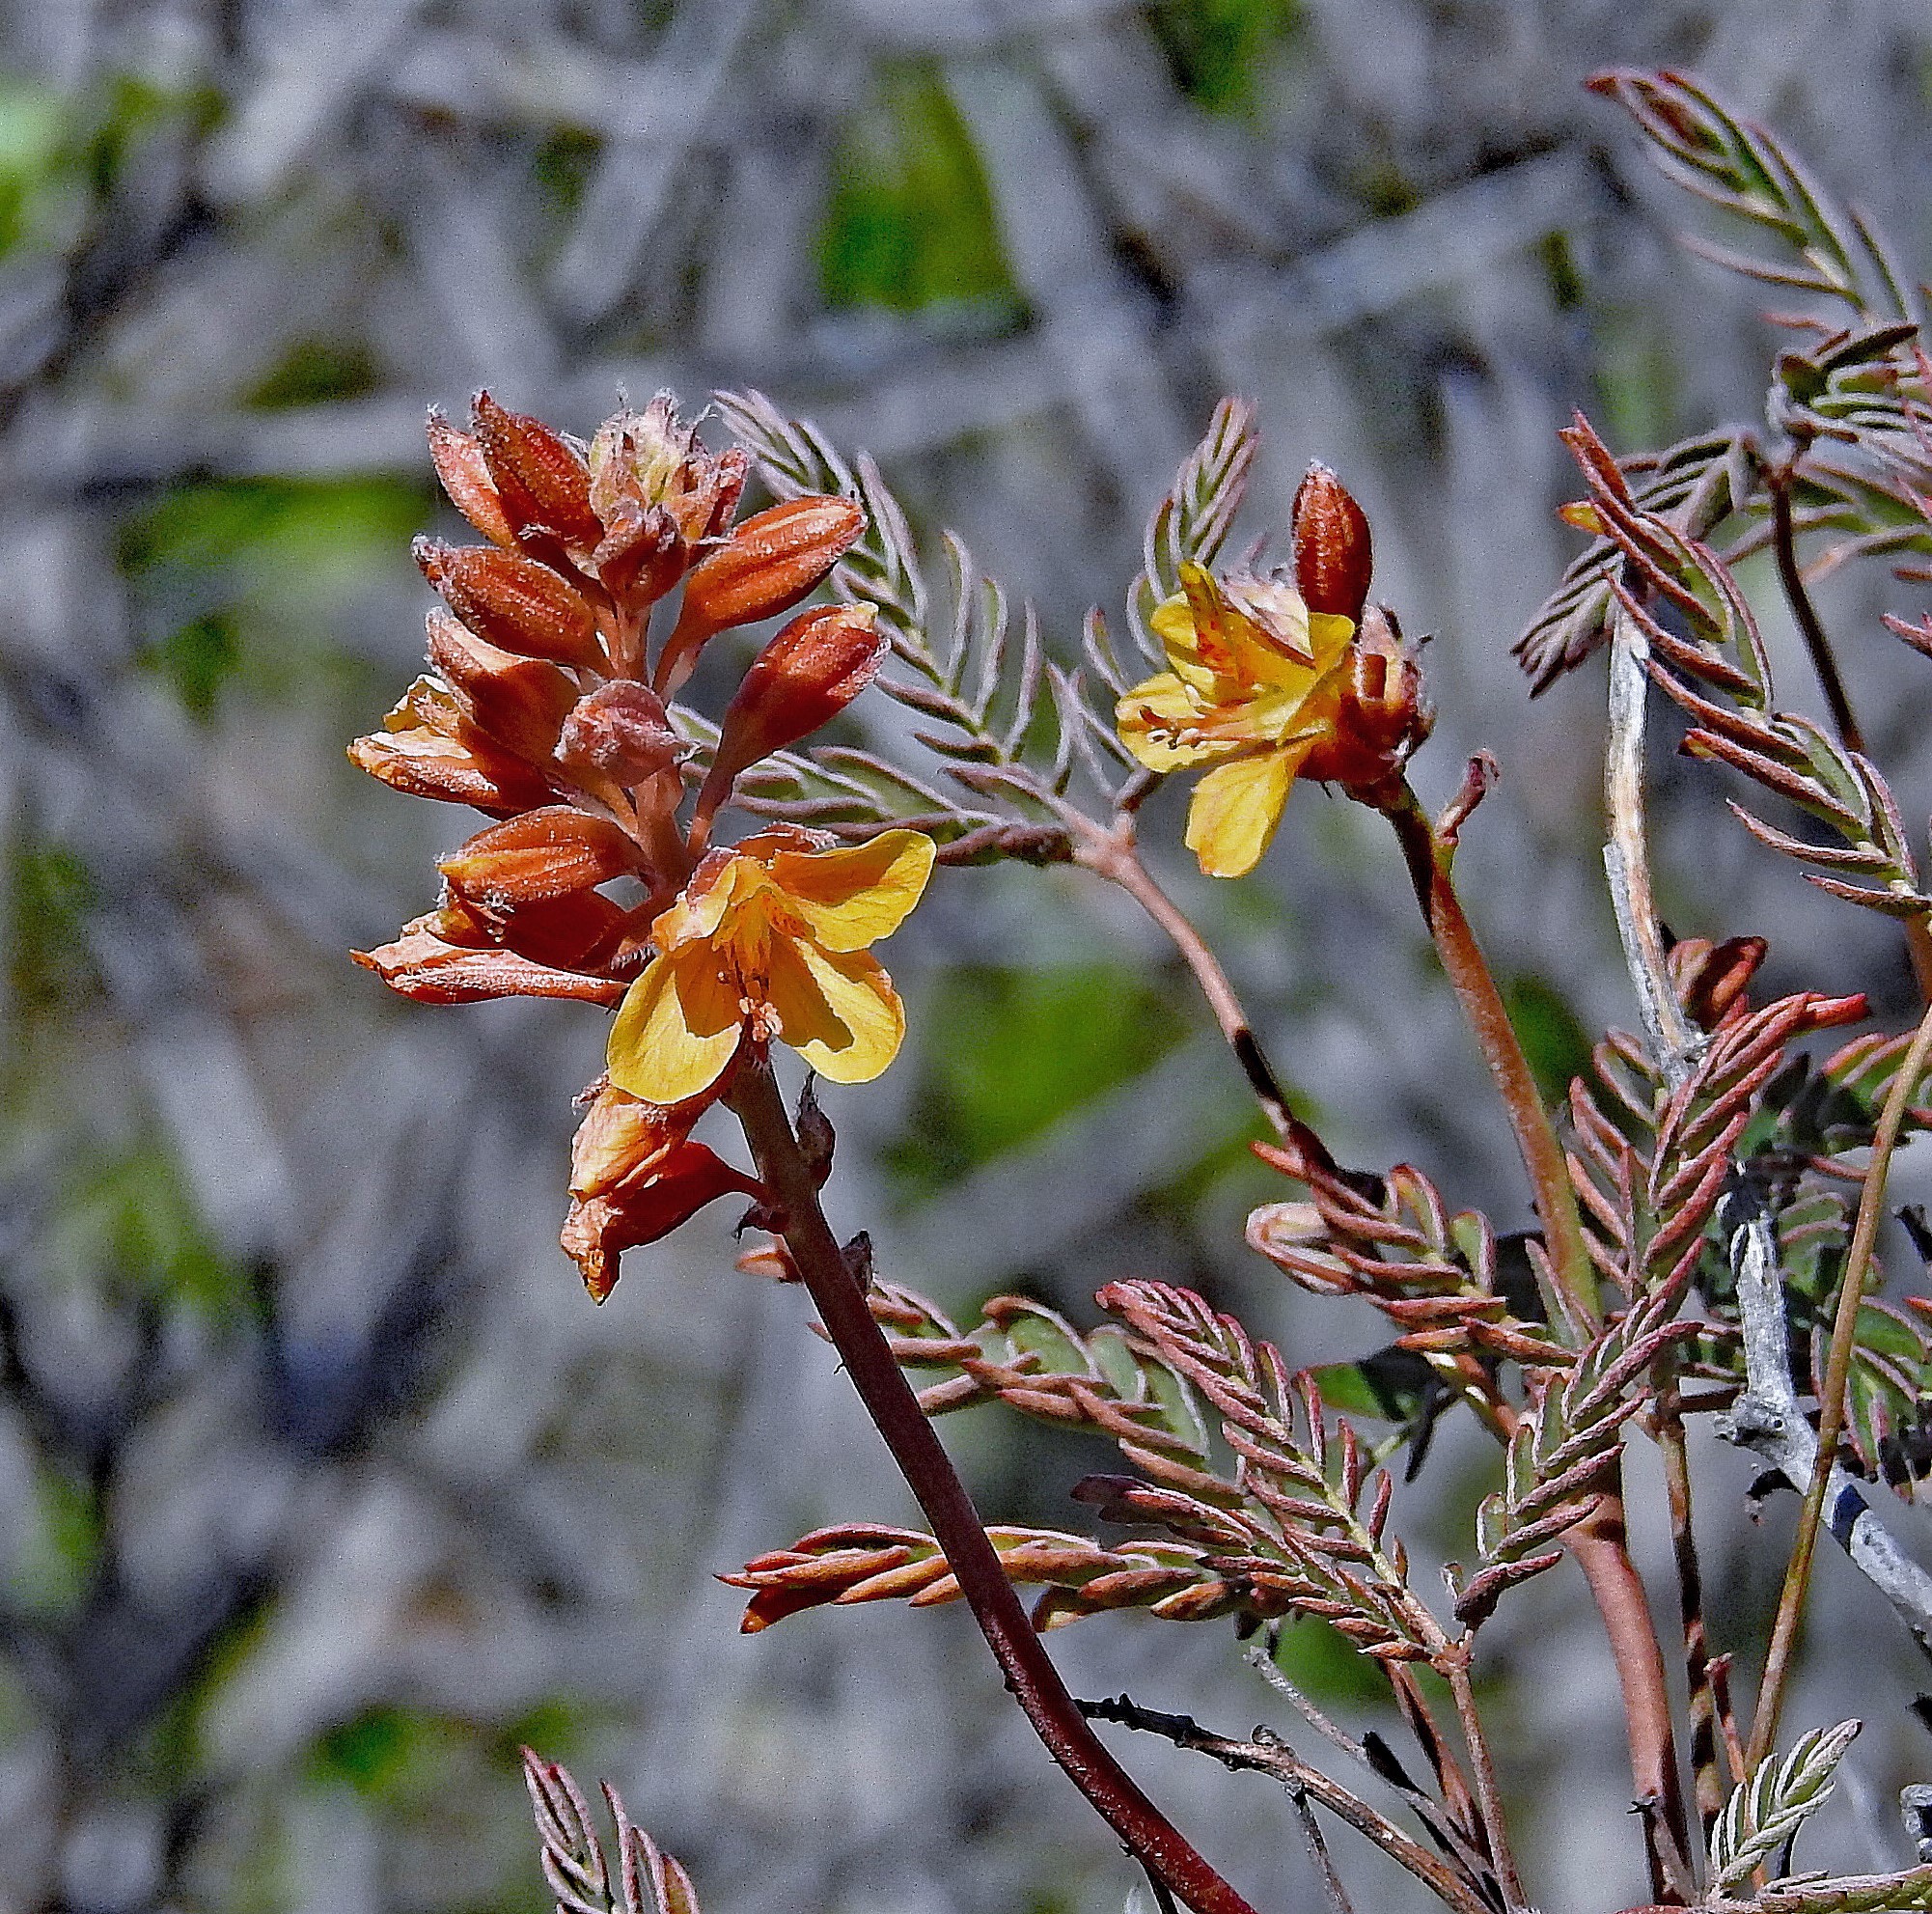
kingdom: Plantae
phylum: Tracheophyta
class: Magnoliopsida
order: Fabales
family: Fabaceae
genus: Hoffmannseggia
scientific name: Hoffmannseggia trifoliata
